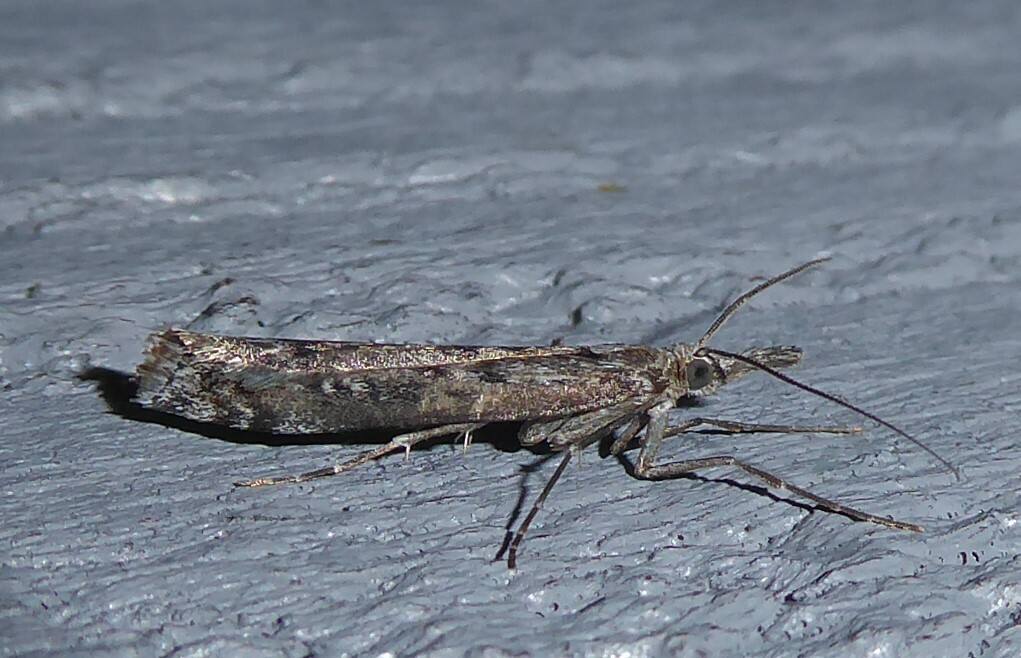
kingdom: Animalia
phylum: Arthropoda
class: Insecta
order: Lepidoptera
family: Crambidae
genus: Orocrambus
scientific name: Orocrambus cyclopicus
